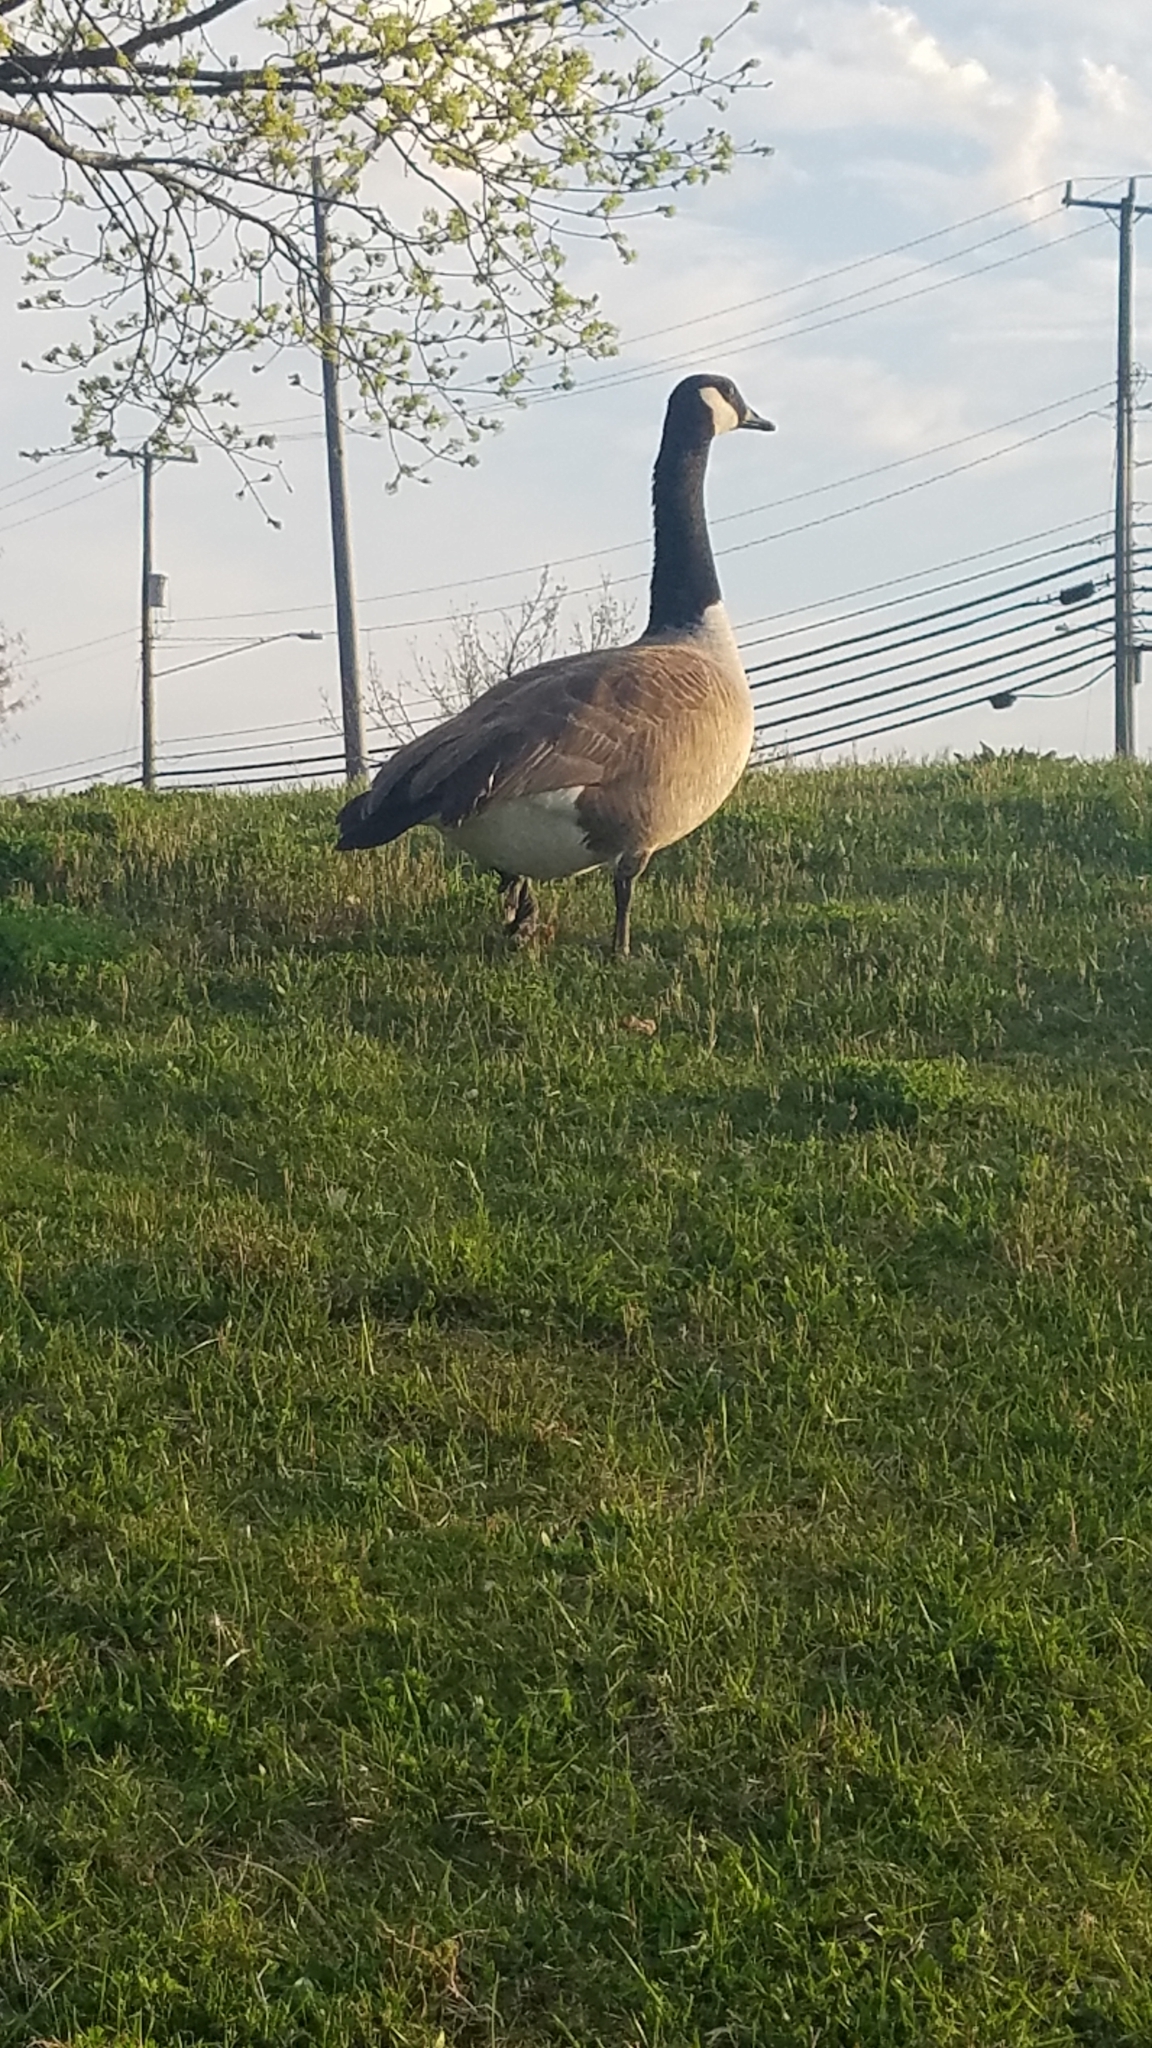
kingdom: Animalia
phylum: Chordata
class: Aves
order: Anseriformes
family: Anatidae
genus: Branta
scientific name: Branta canadensis
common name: Canada goose
